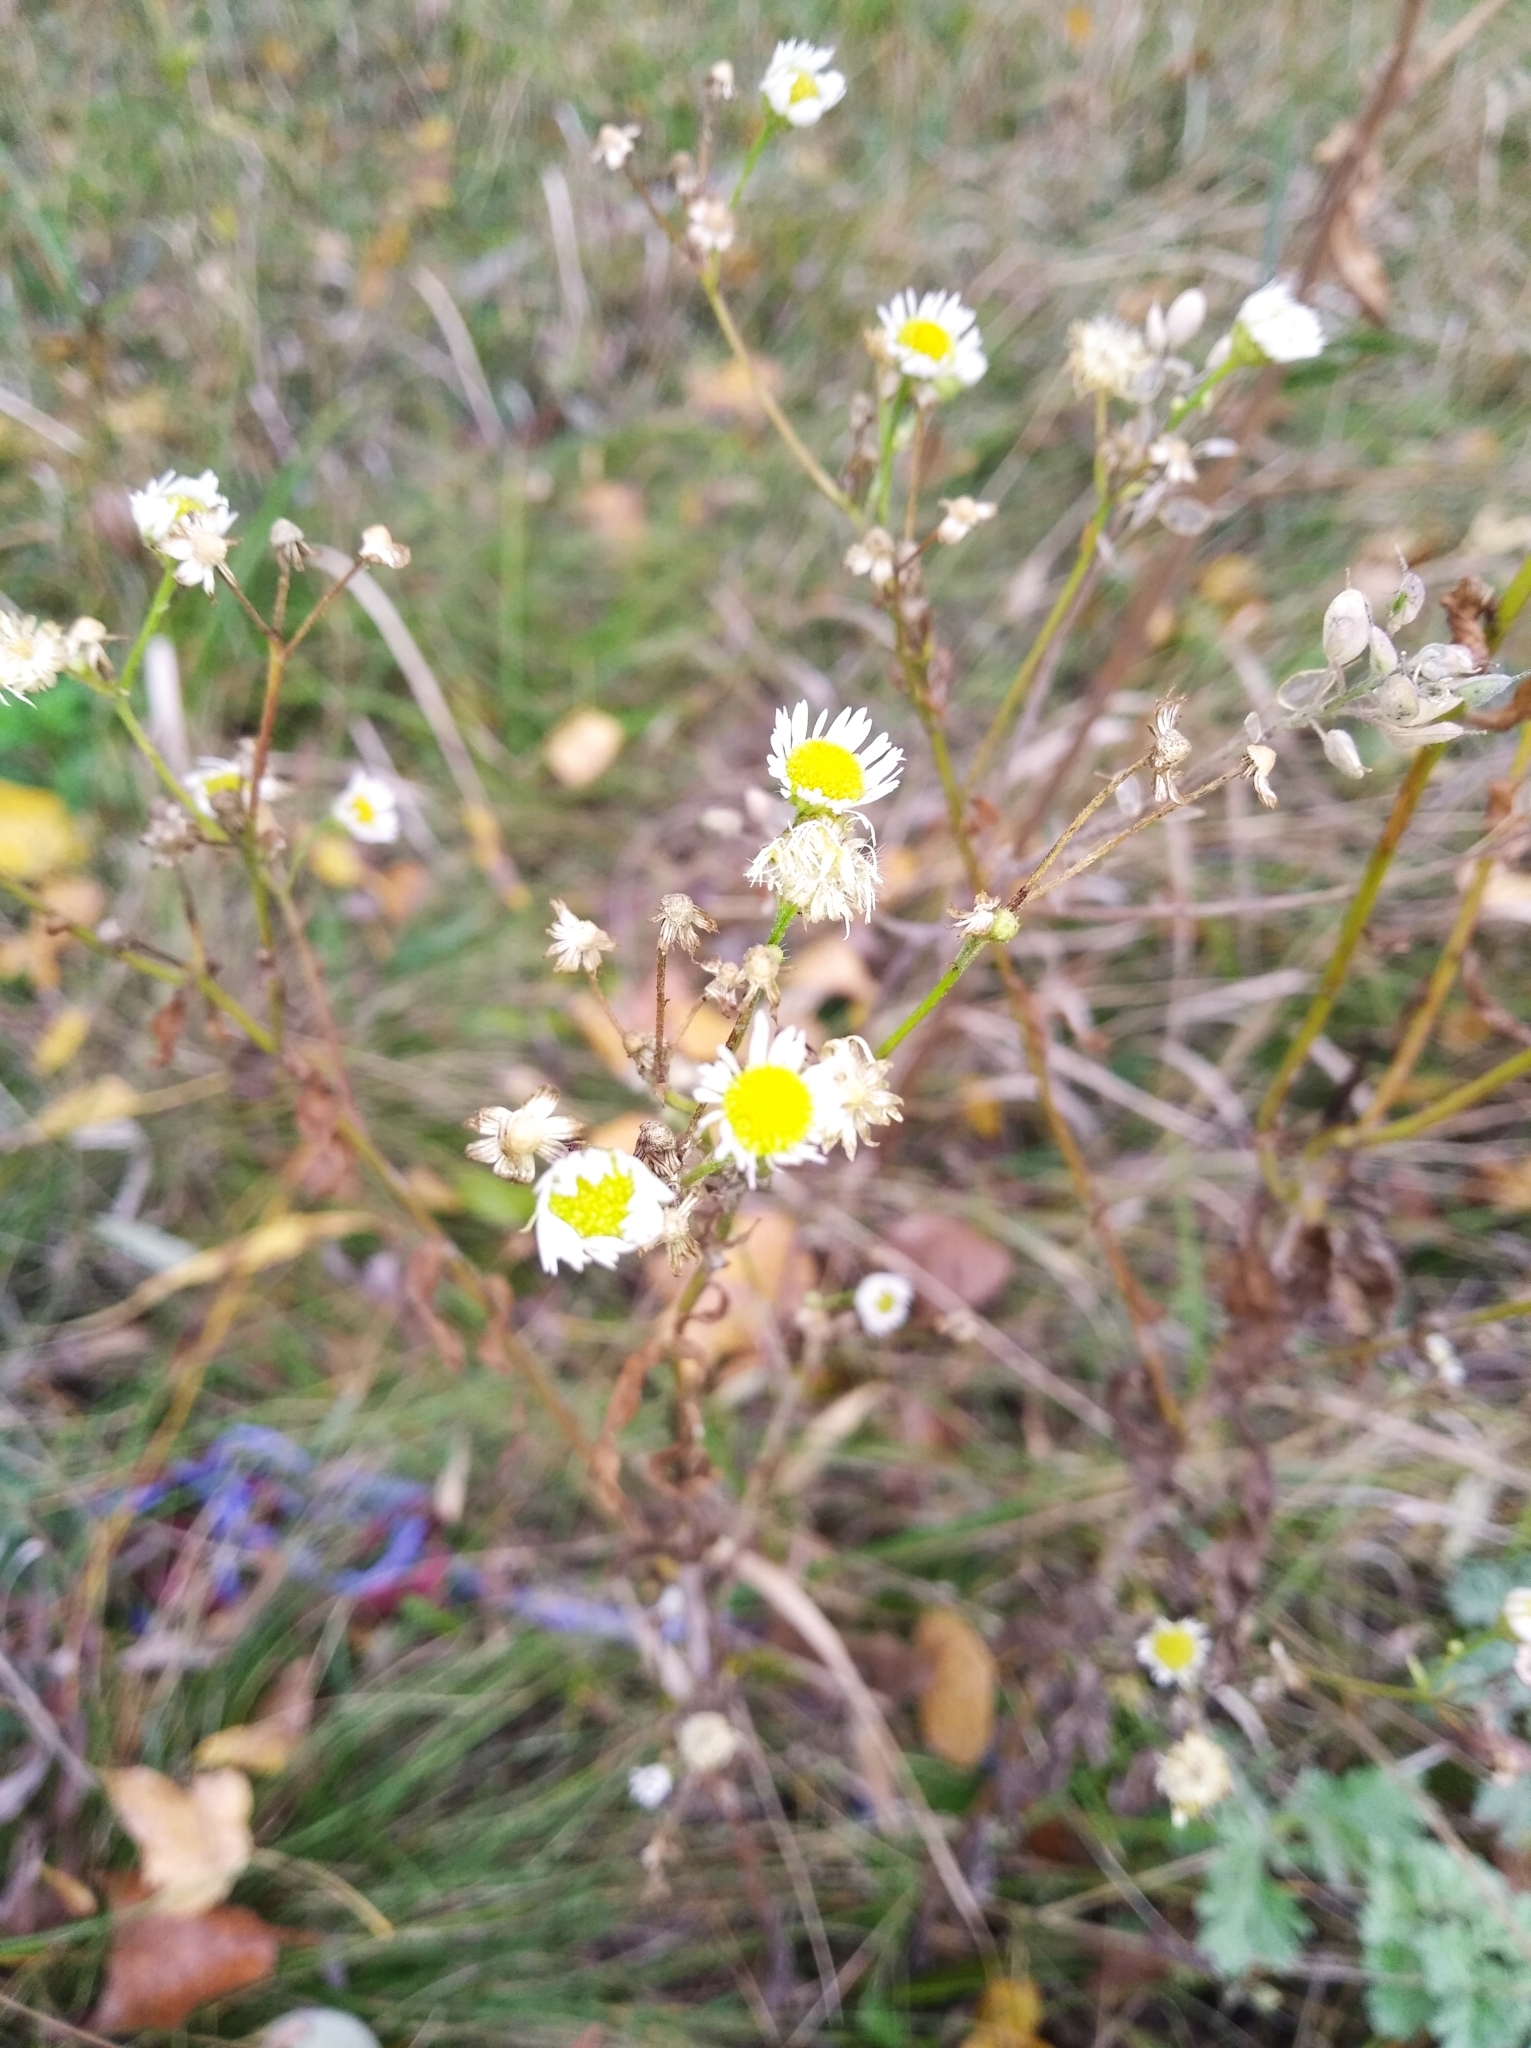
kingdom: Plantae
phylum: Tracheophyta
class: Magnoliopsida
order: Asterales
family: Asteraceae
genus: Erigeron
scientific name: Erigeron annuus
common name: Tall fleabane
